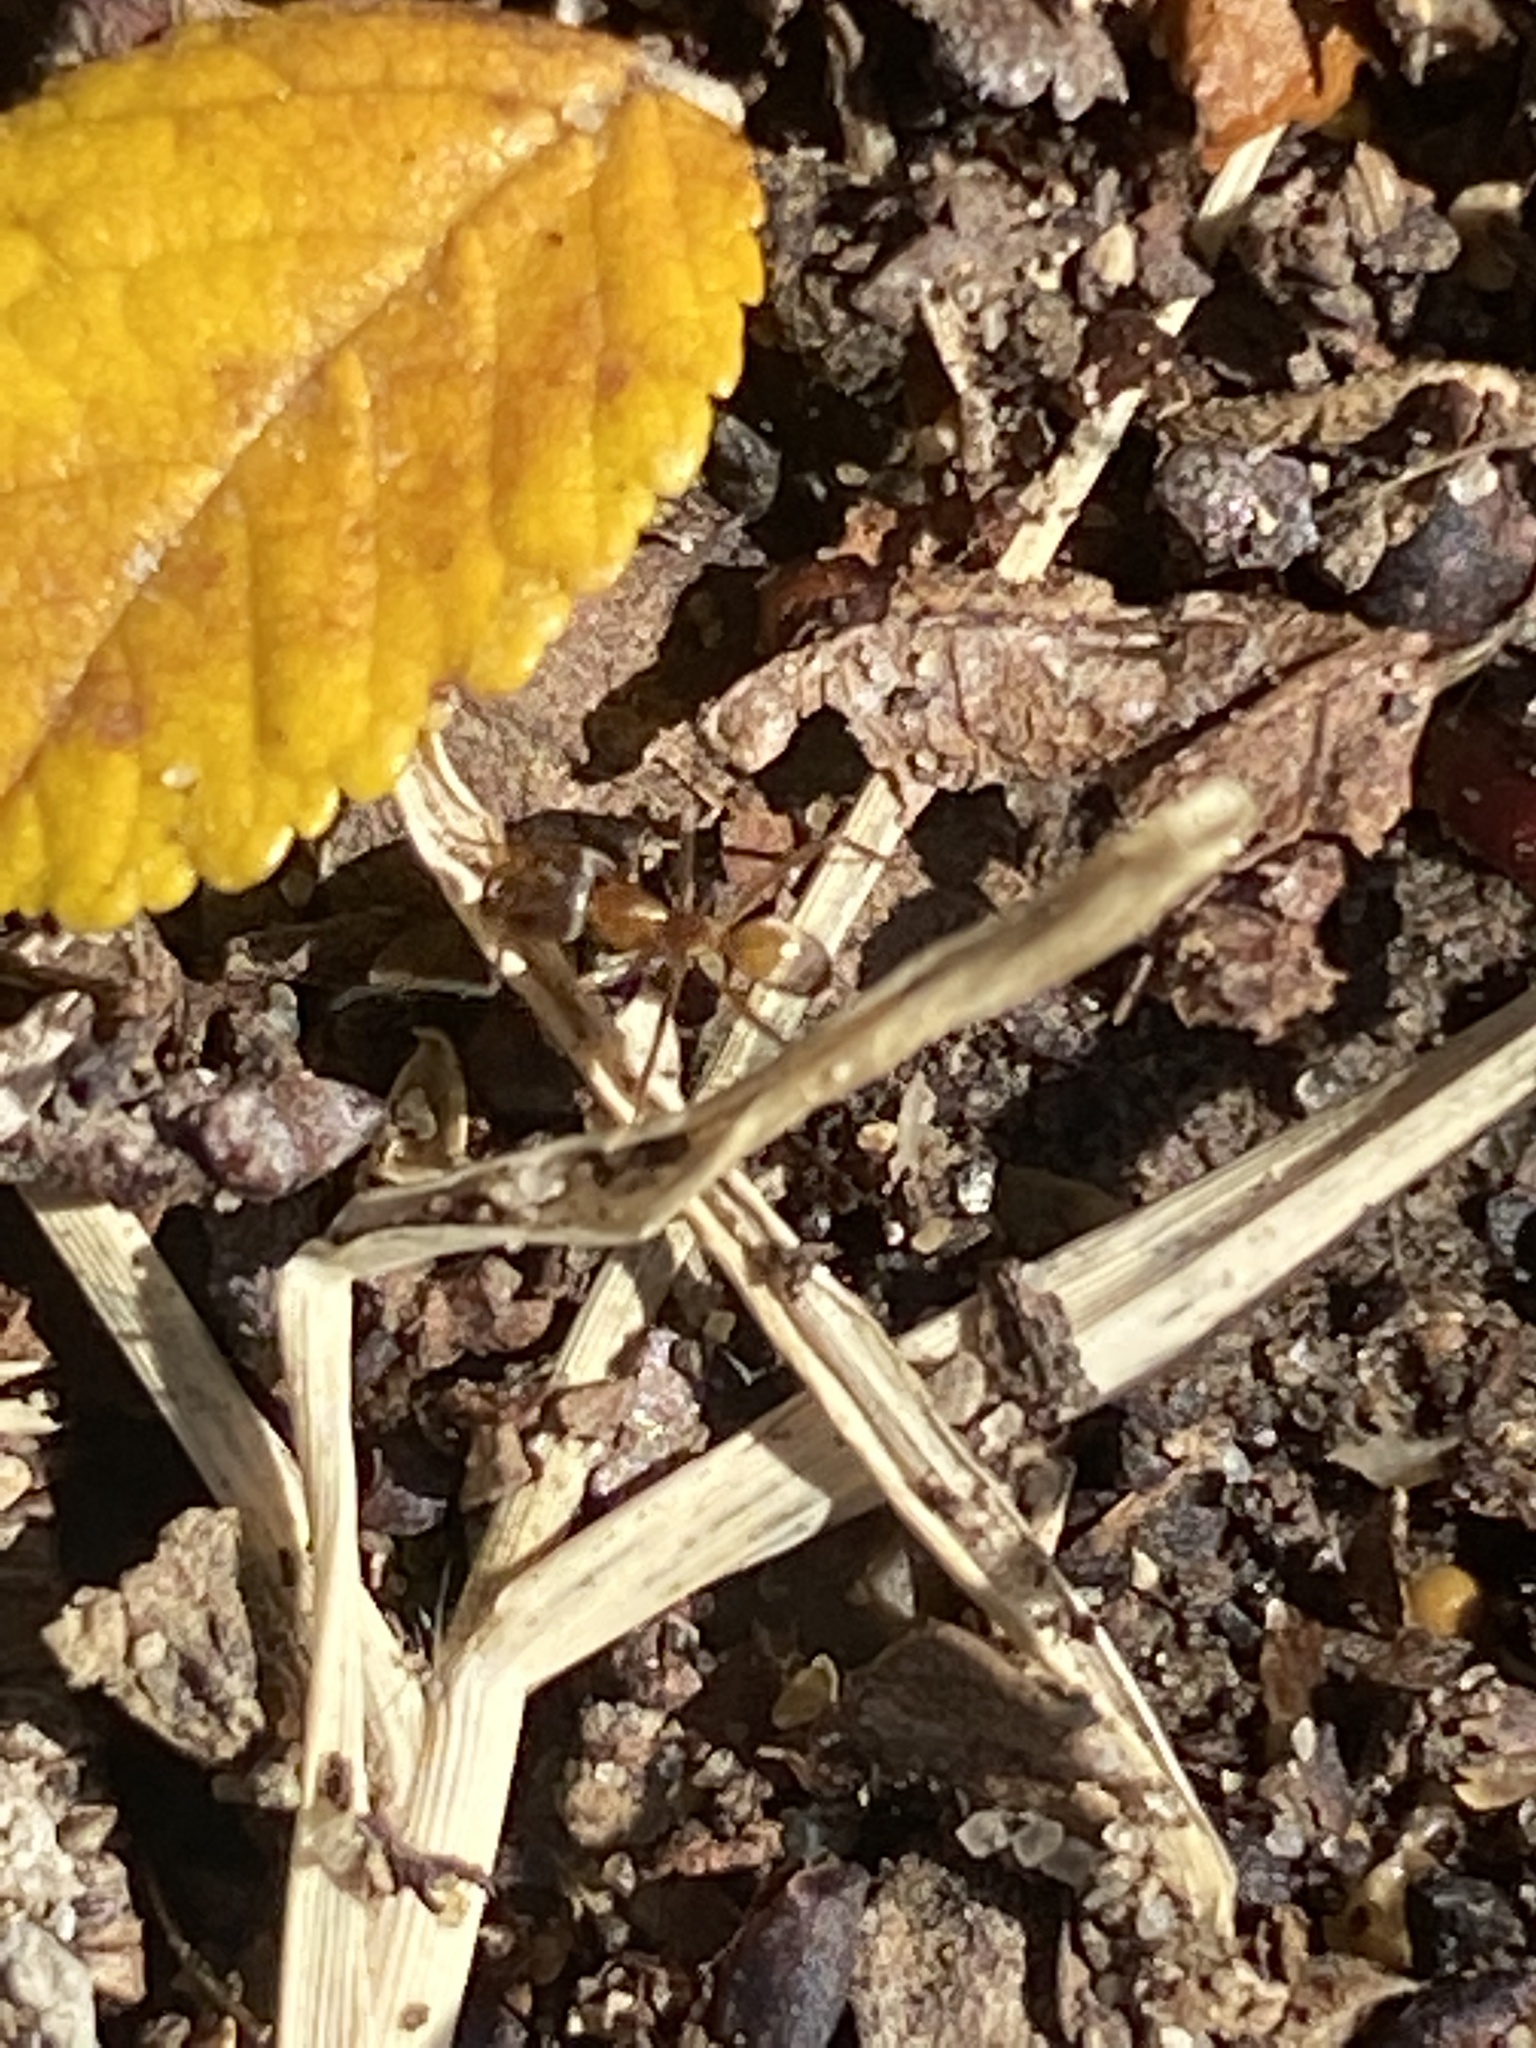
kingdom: Animalia
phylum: Arthropoda
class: Insecta
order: Hymenoptera
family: Formicidae
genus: Dorymyrmex
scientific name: Dorymyrmex flavus
